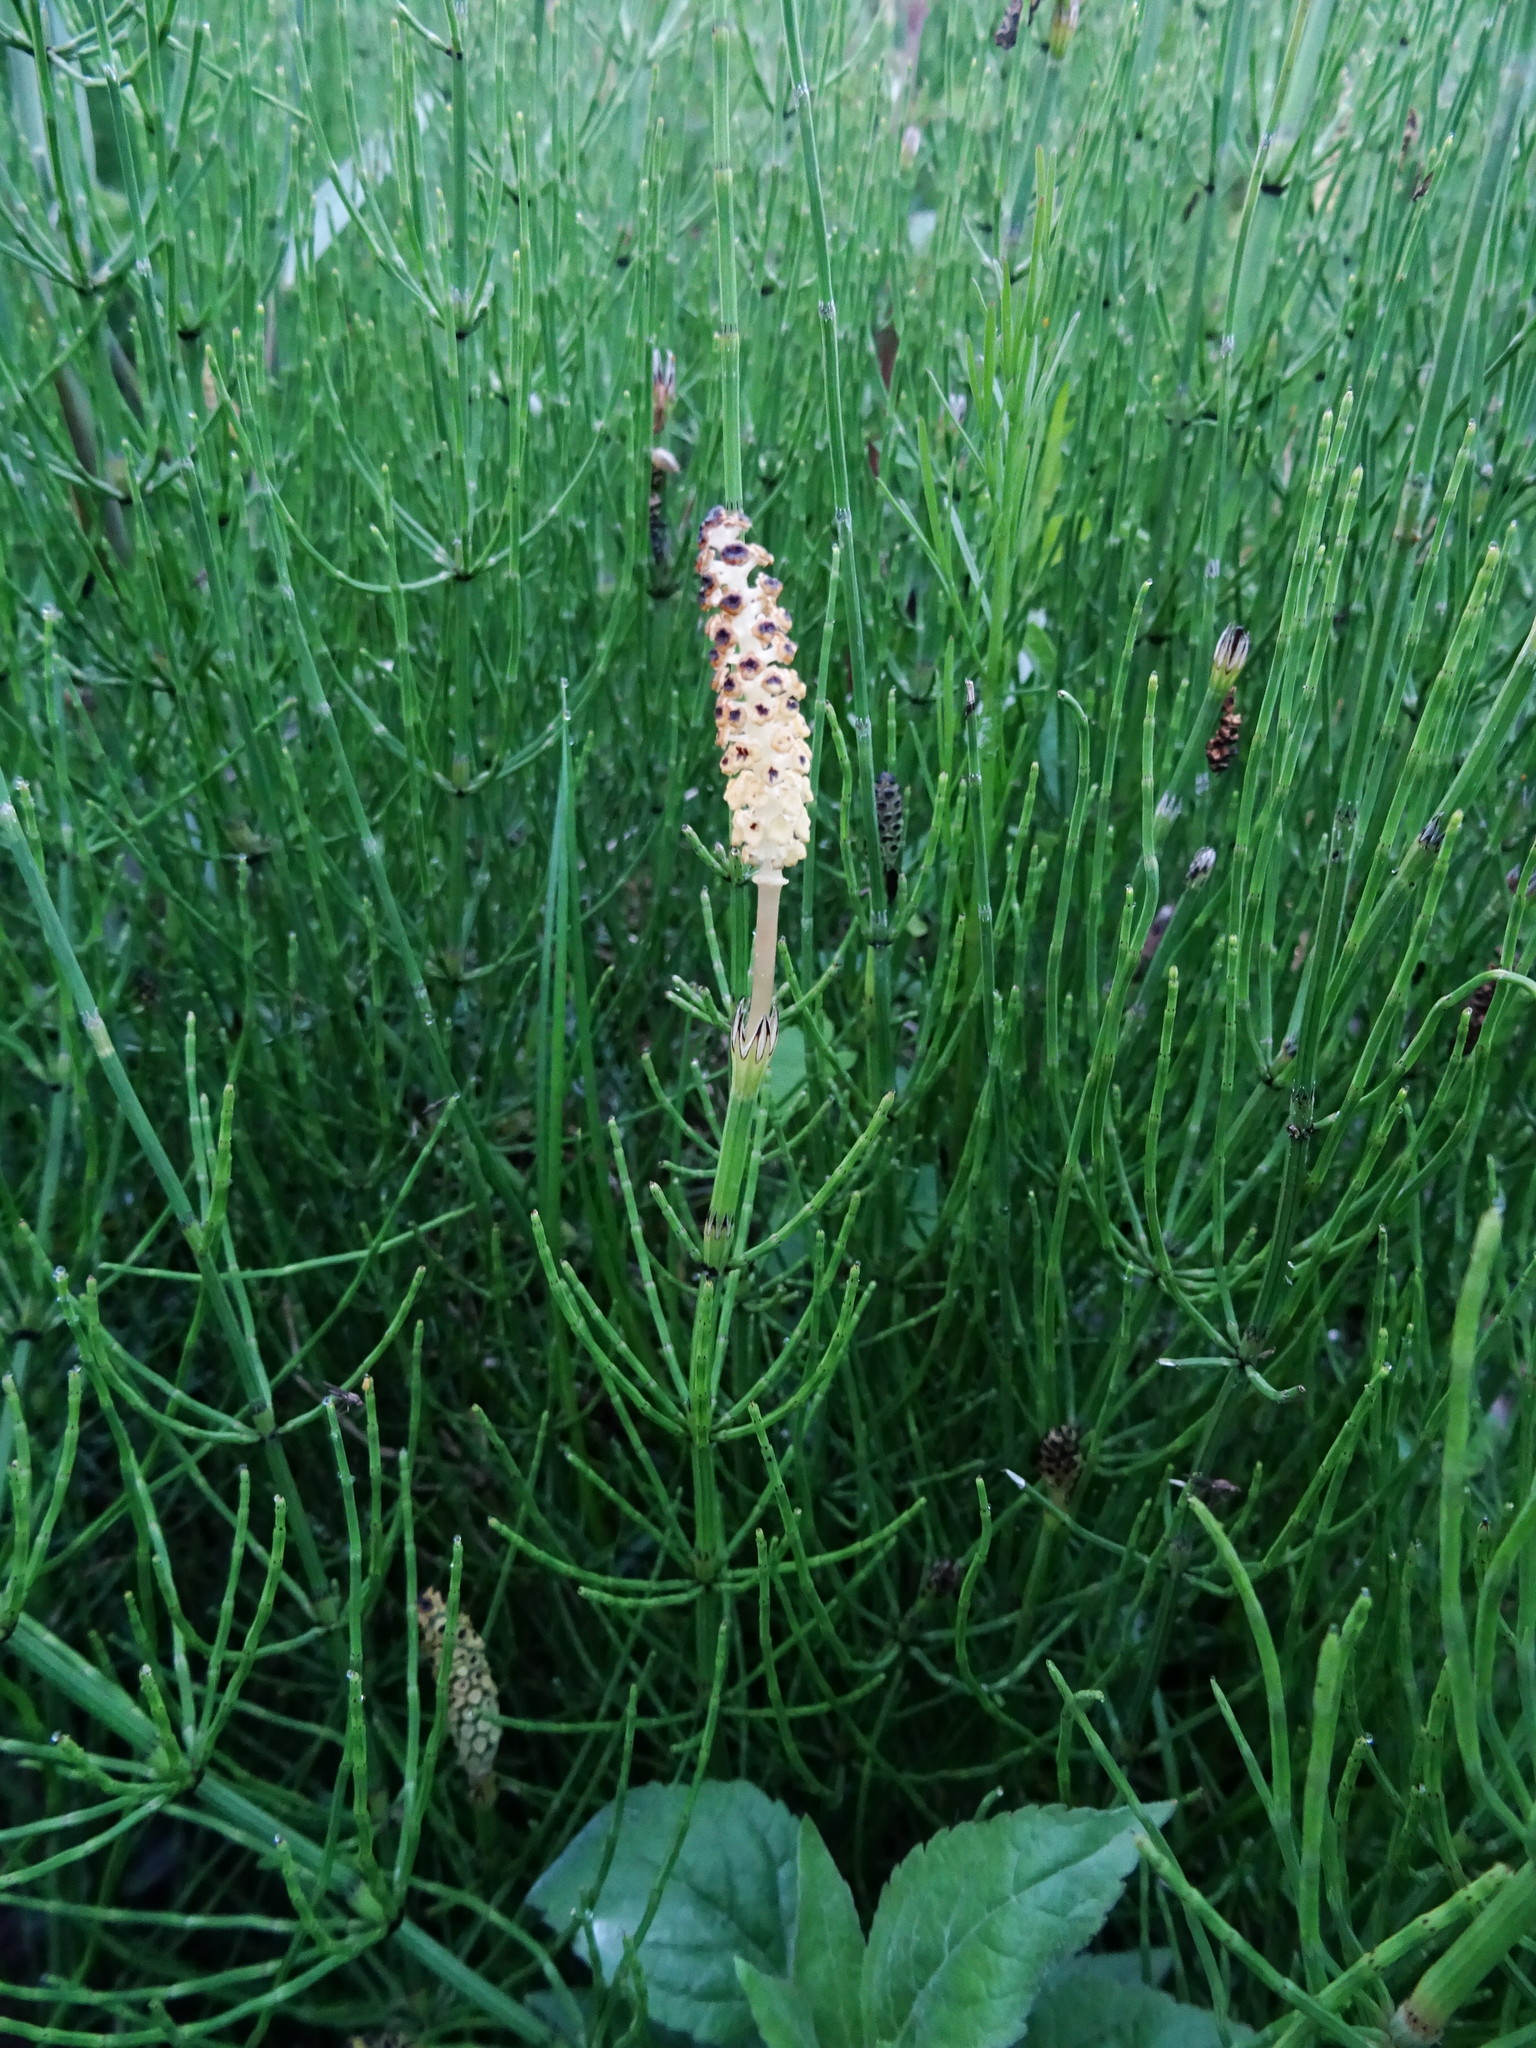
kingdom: Plantae
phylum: Tracheophyta
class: Polypodiopsida
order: Equisetales
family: Equisetaceae
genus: Equisetum
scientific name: Equisetum palustre
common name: Marsh horsetail
